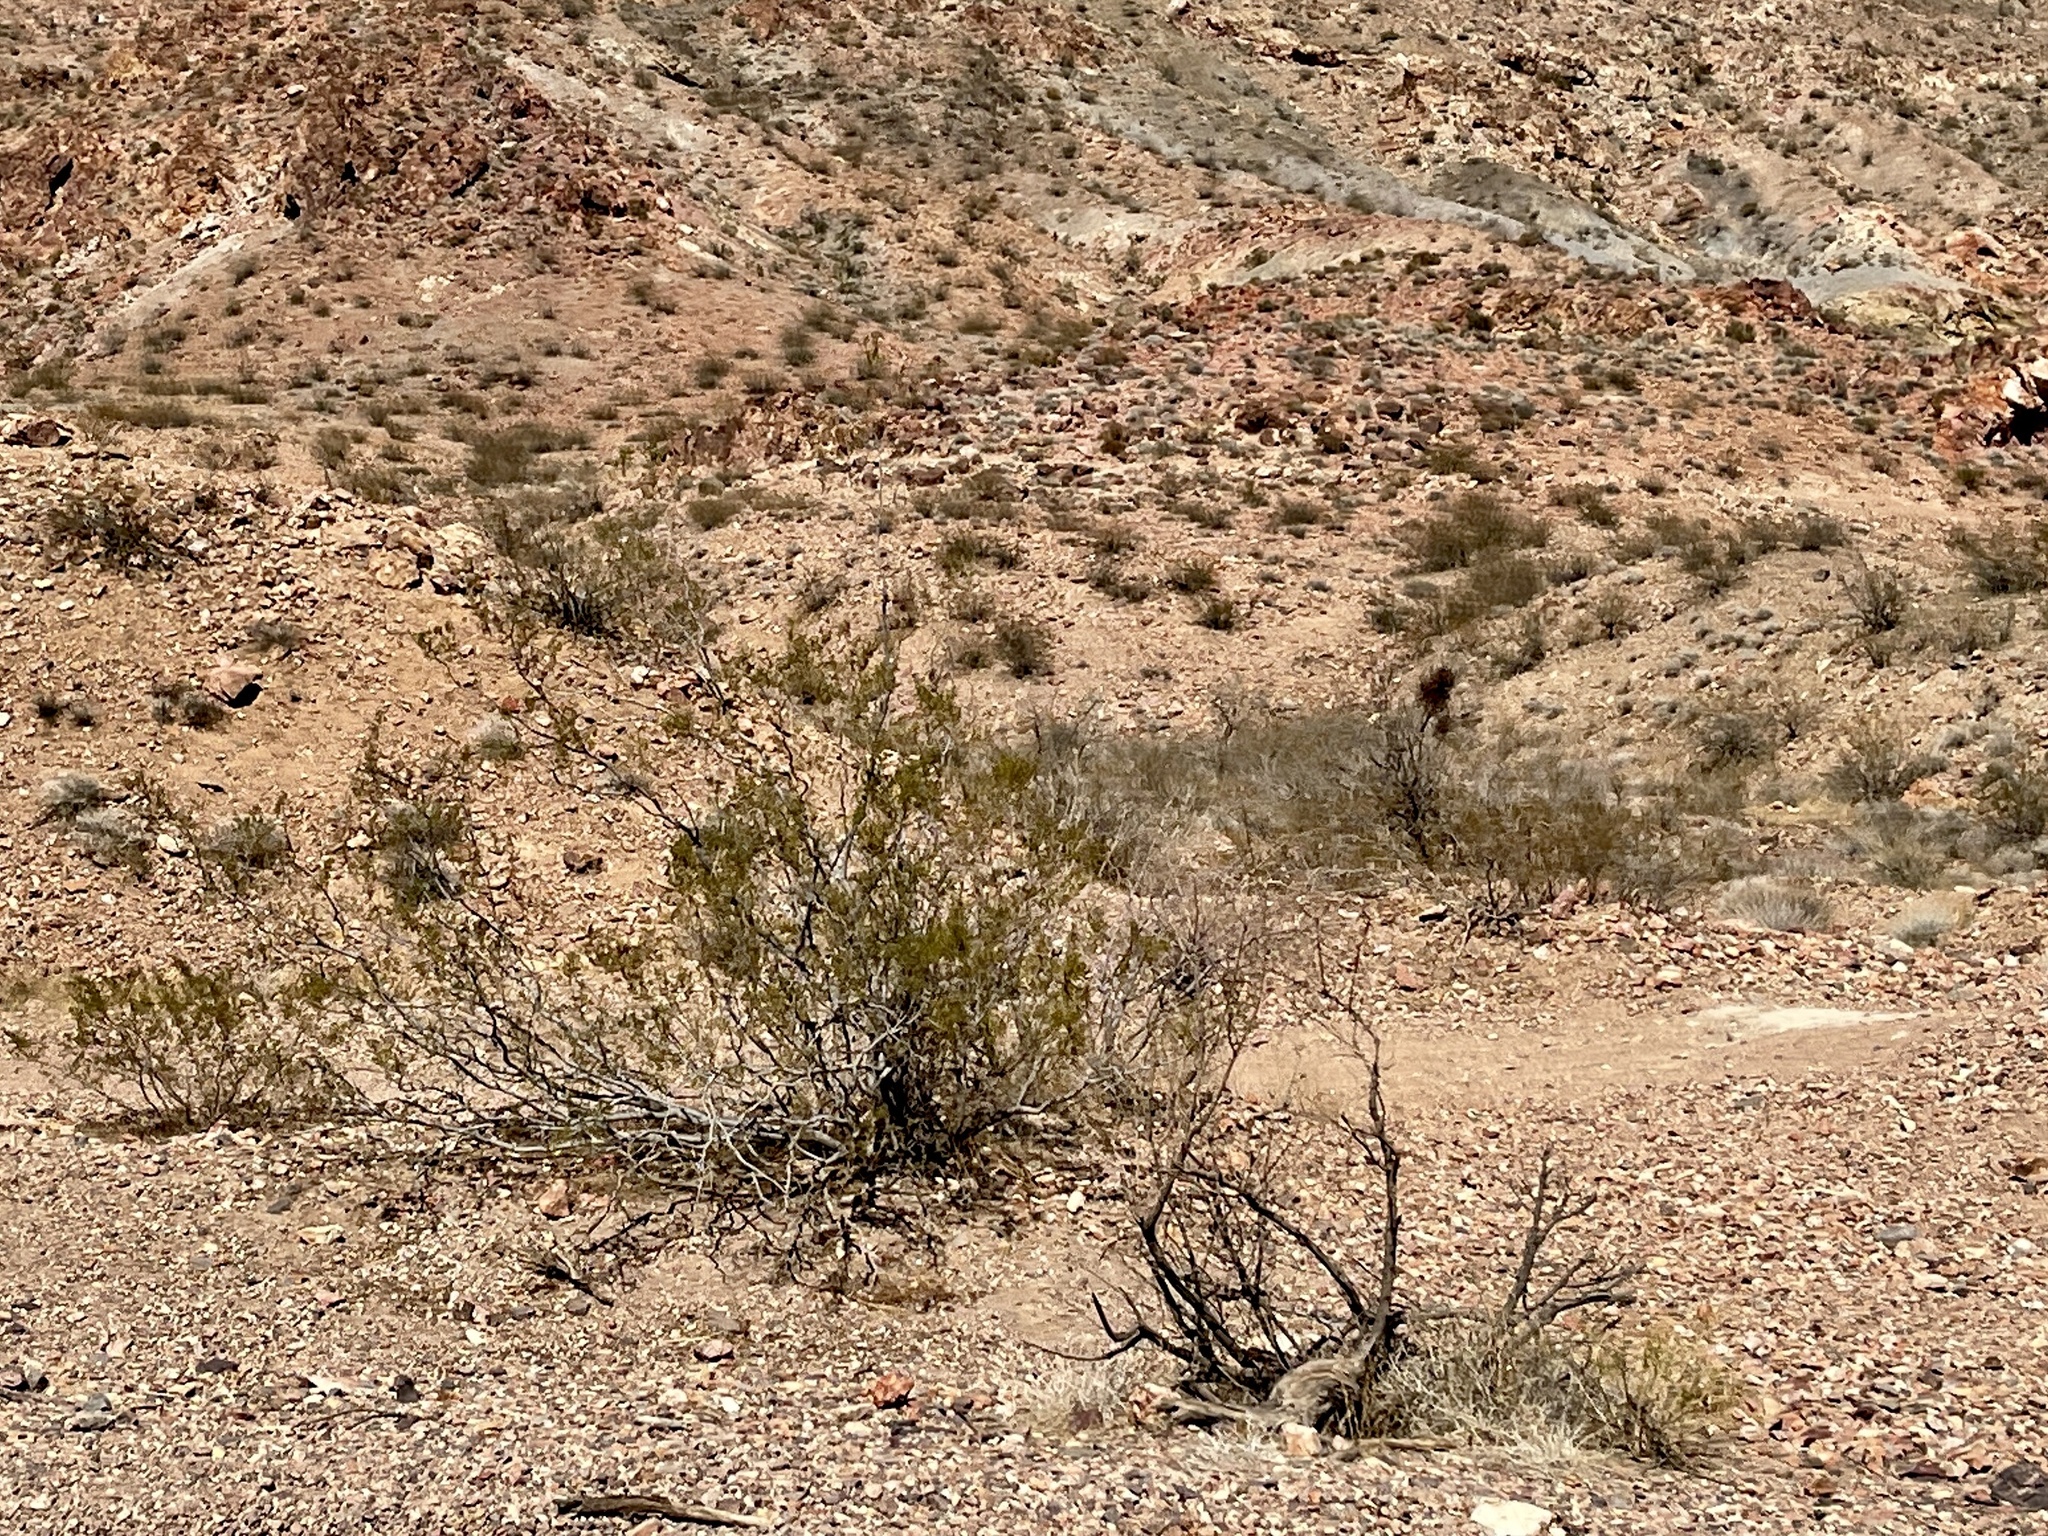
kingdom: Plantae
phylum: Tracheophyta
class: Magnoliopsida
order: Zygophyllales
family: Zygophyllaceae
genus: Larrea
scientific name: Larrea tridentata
